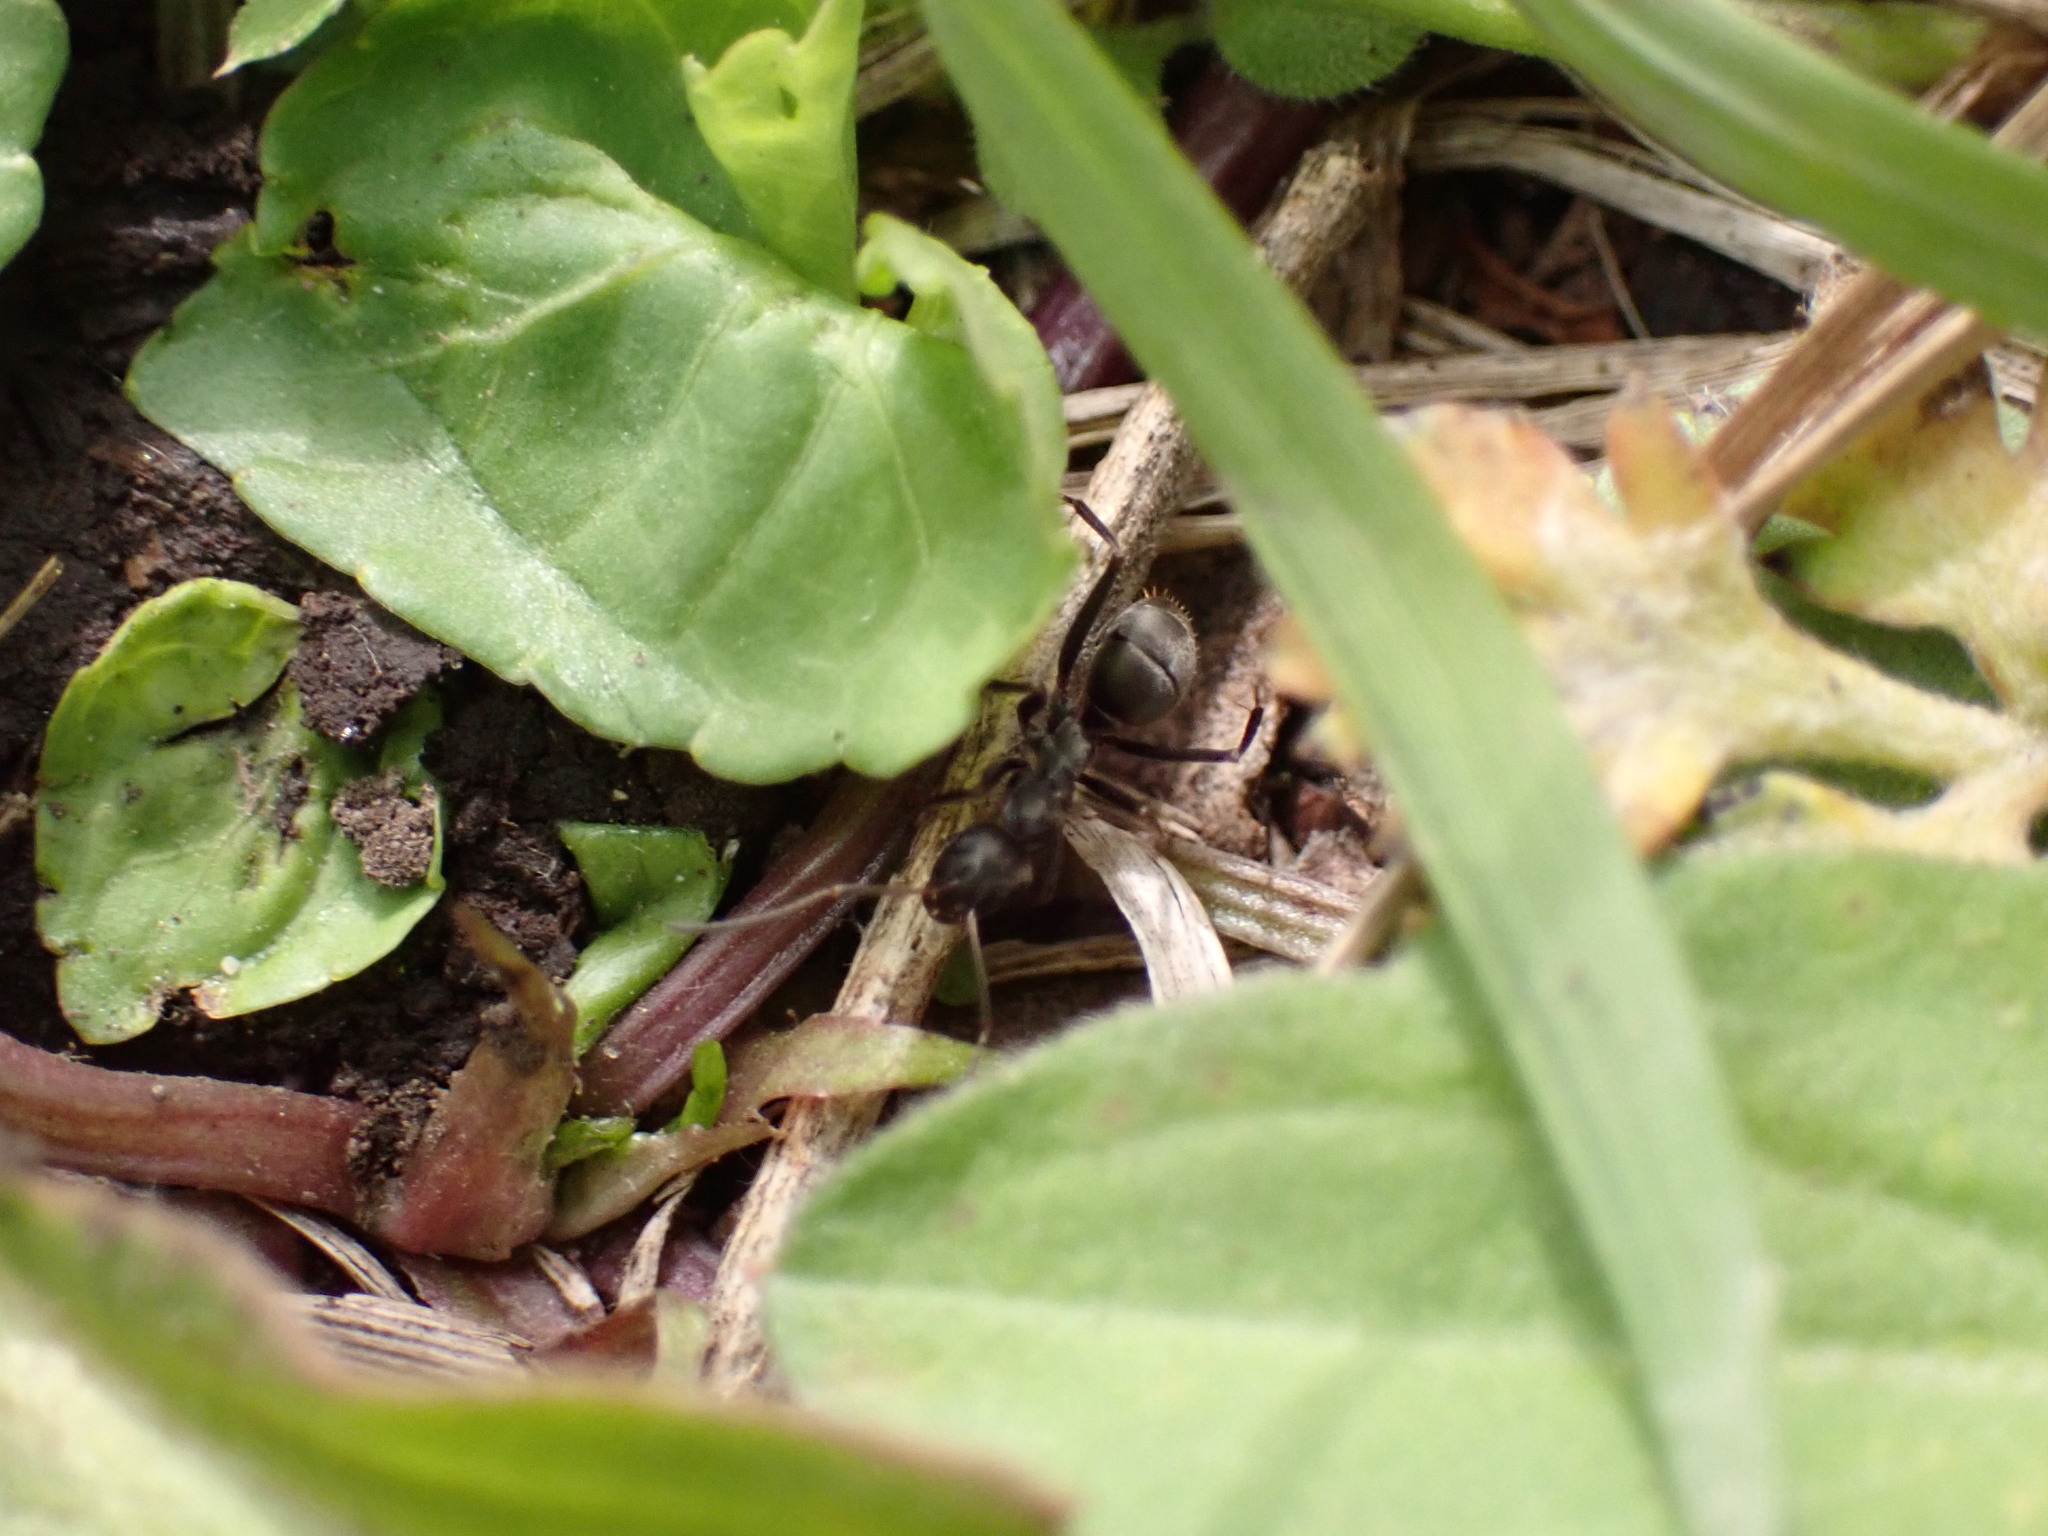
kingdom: Animalia
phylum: Arthropoda
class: Insecta
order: Hymenoptera
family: Formicidae
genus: Formica
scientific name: Formica japonica
